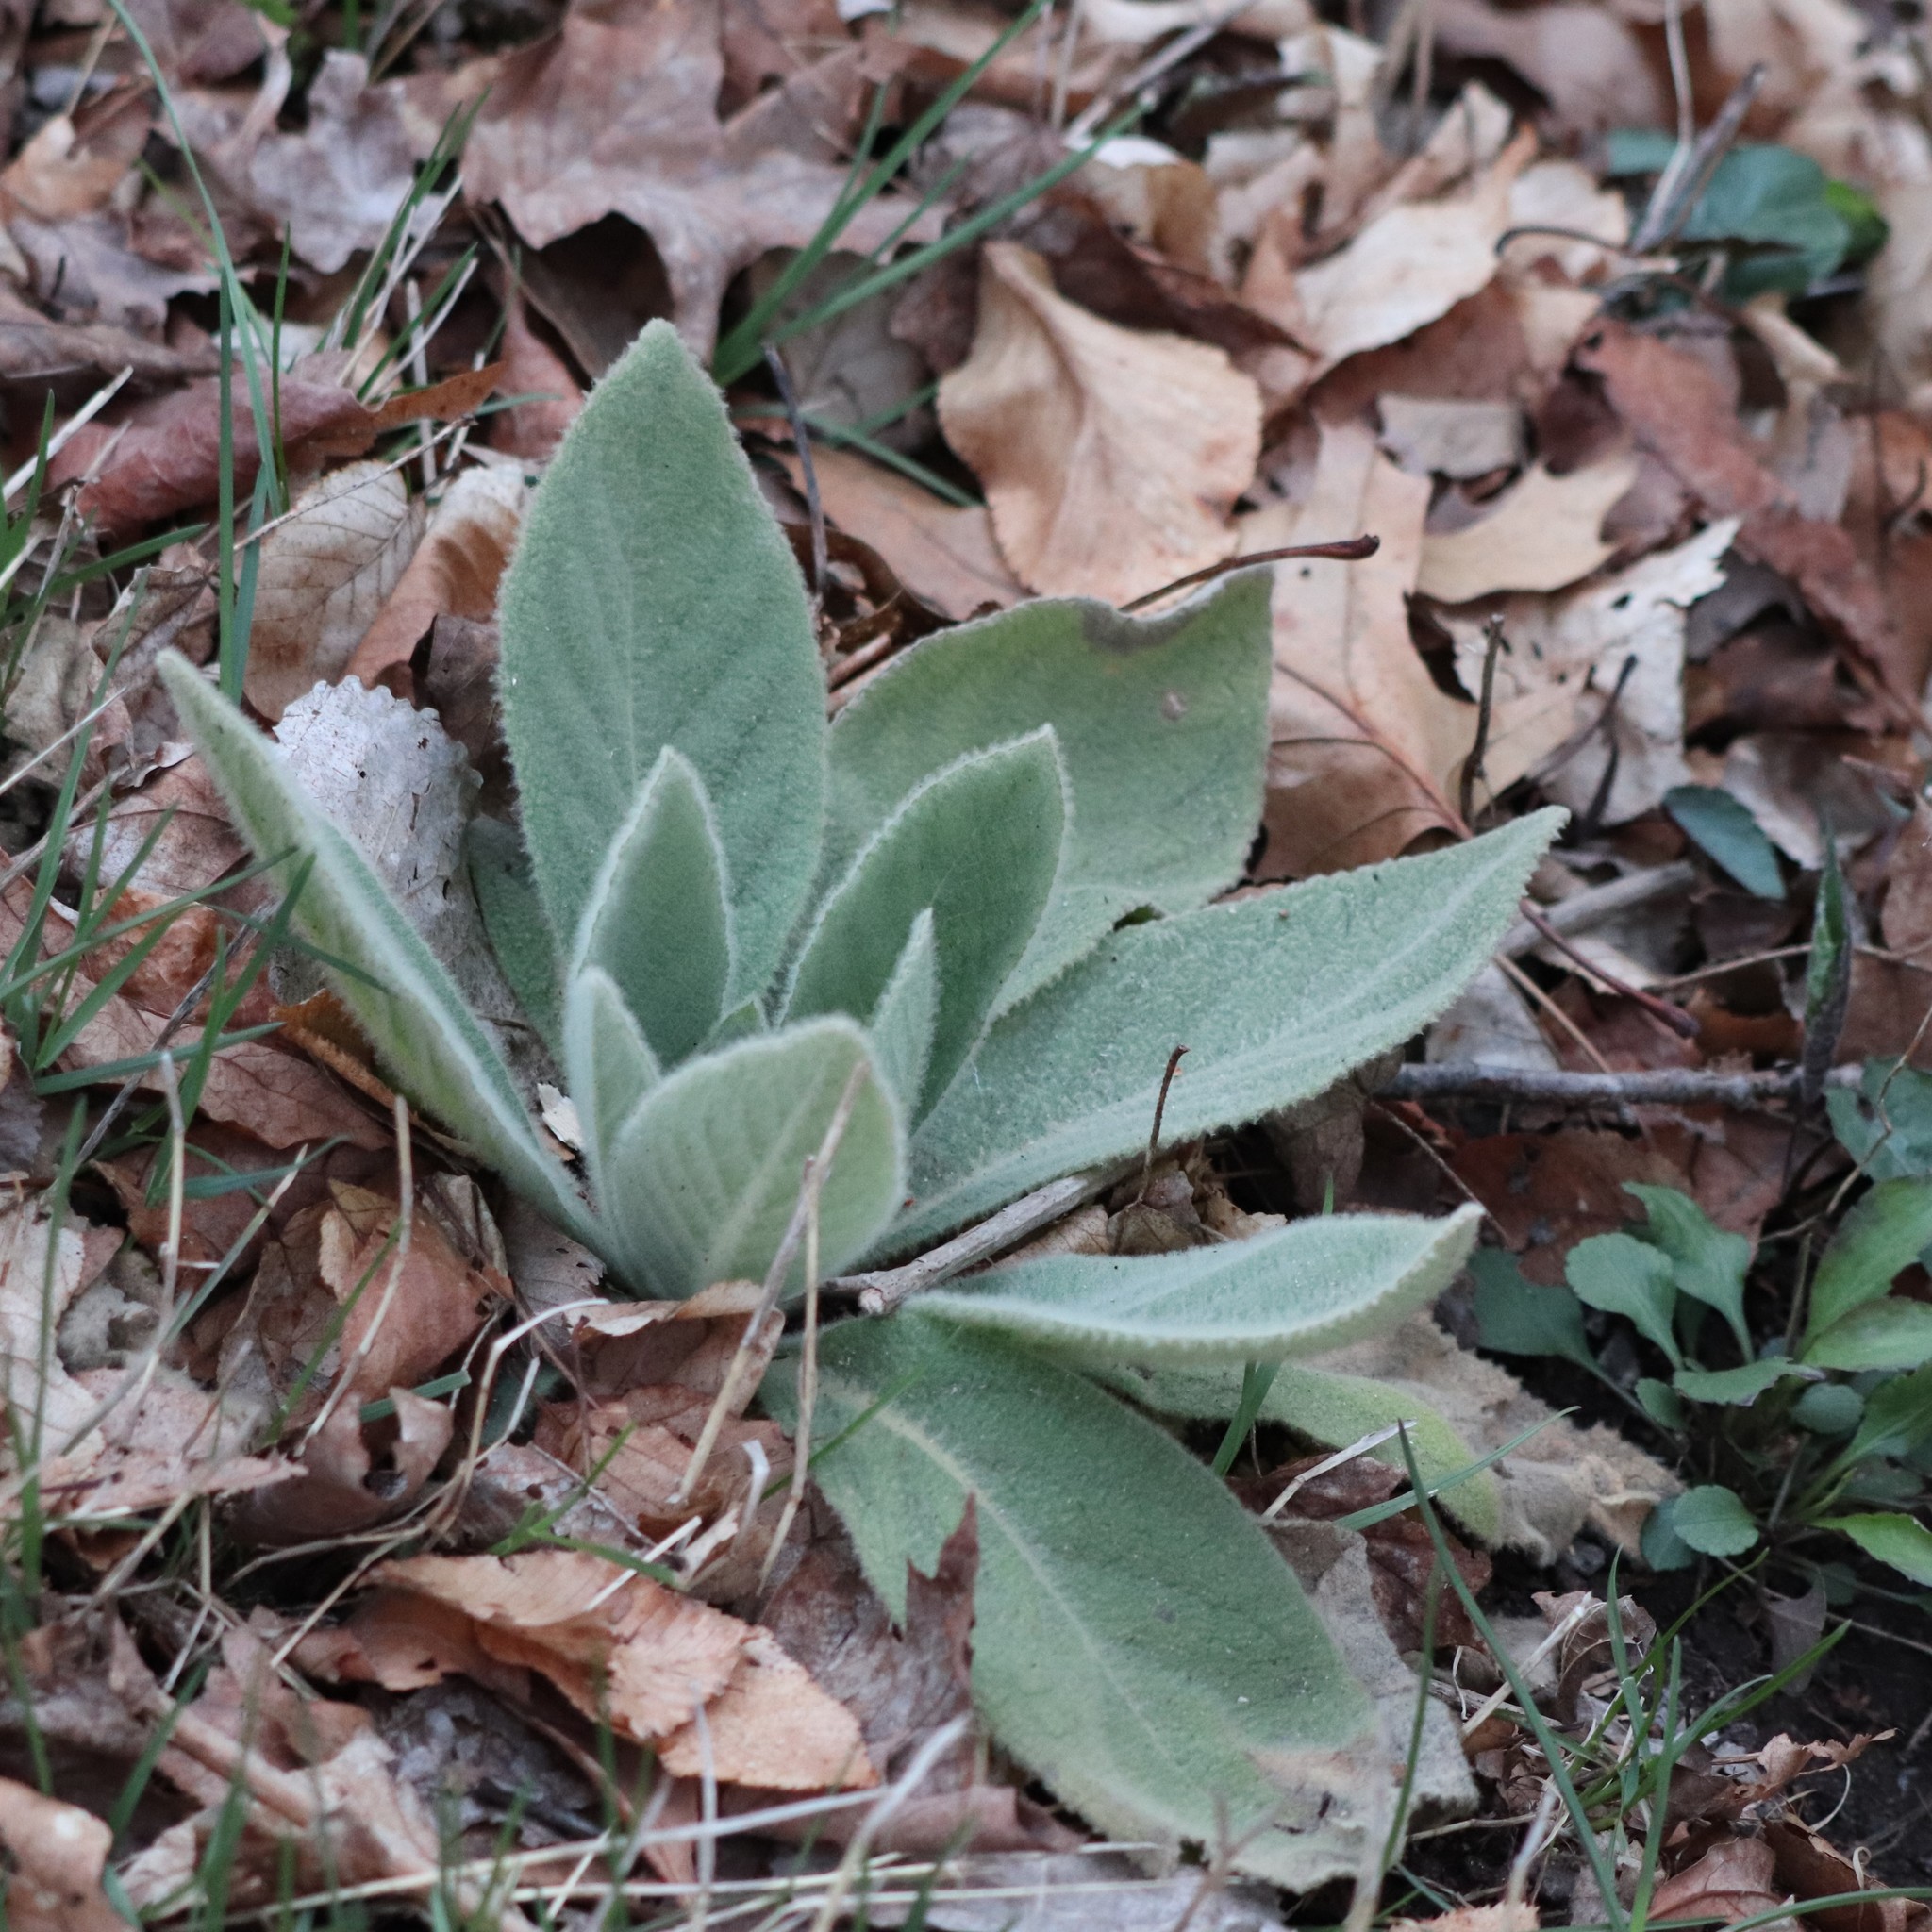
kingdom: Plantae
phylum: Tracheophyta
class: Magnoliopsida
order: Lamiales
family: Scrophulariaceae
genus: Verbascum
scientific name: Verbascum thapsus
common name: Common mullein
